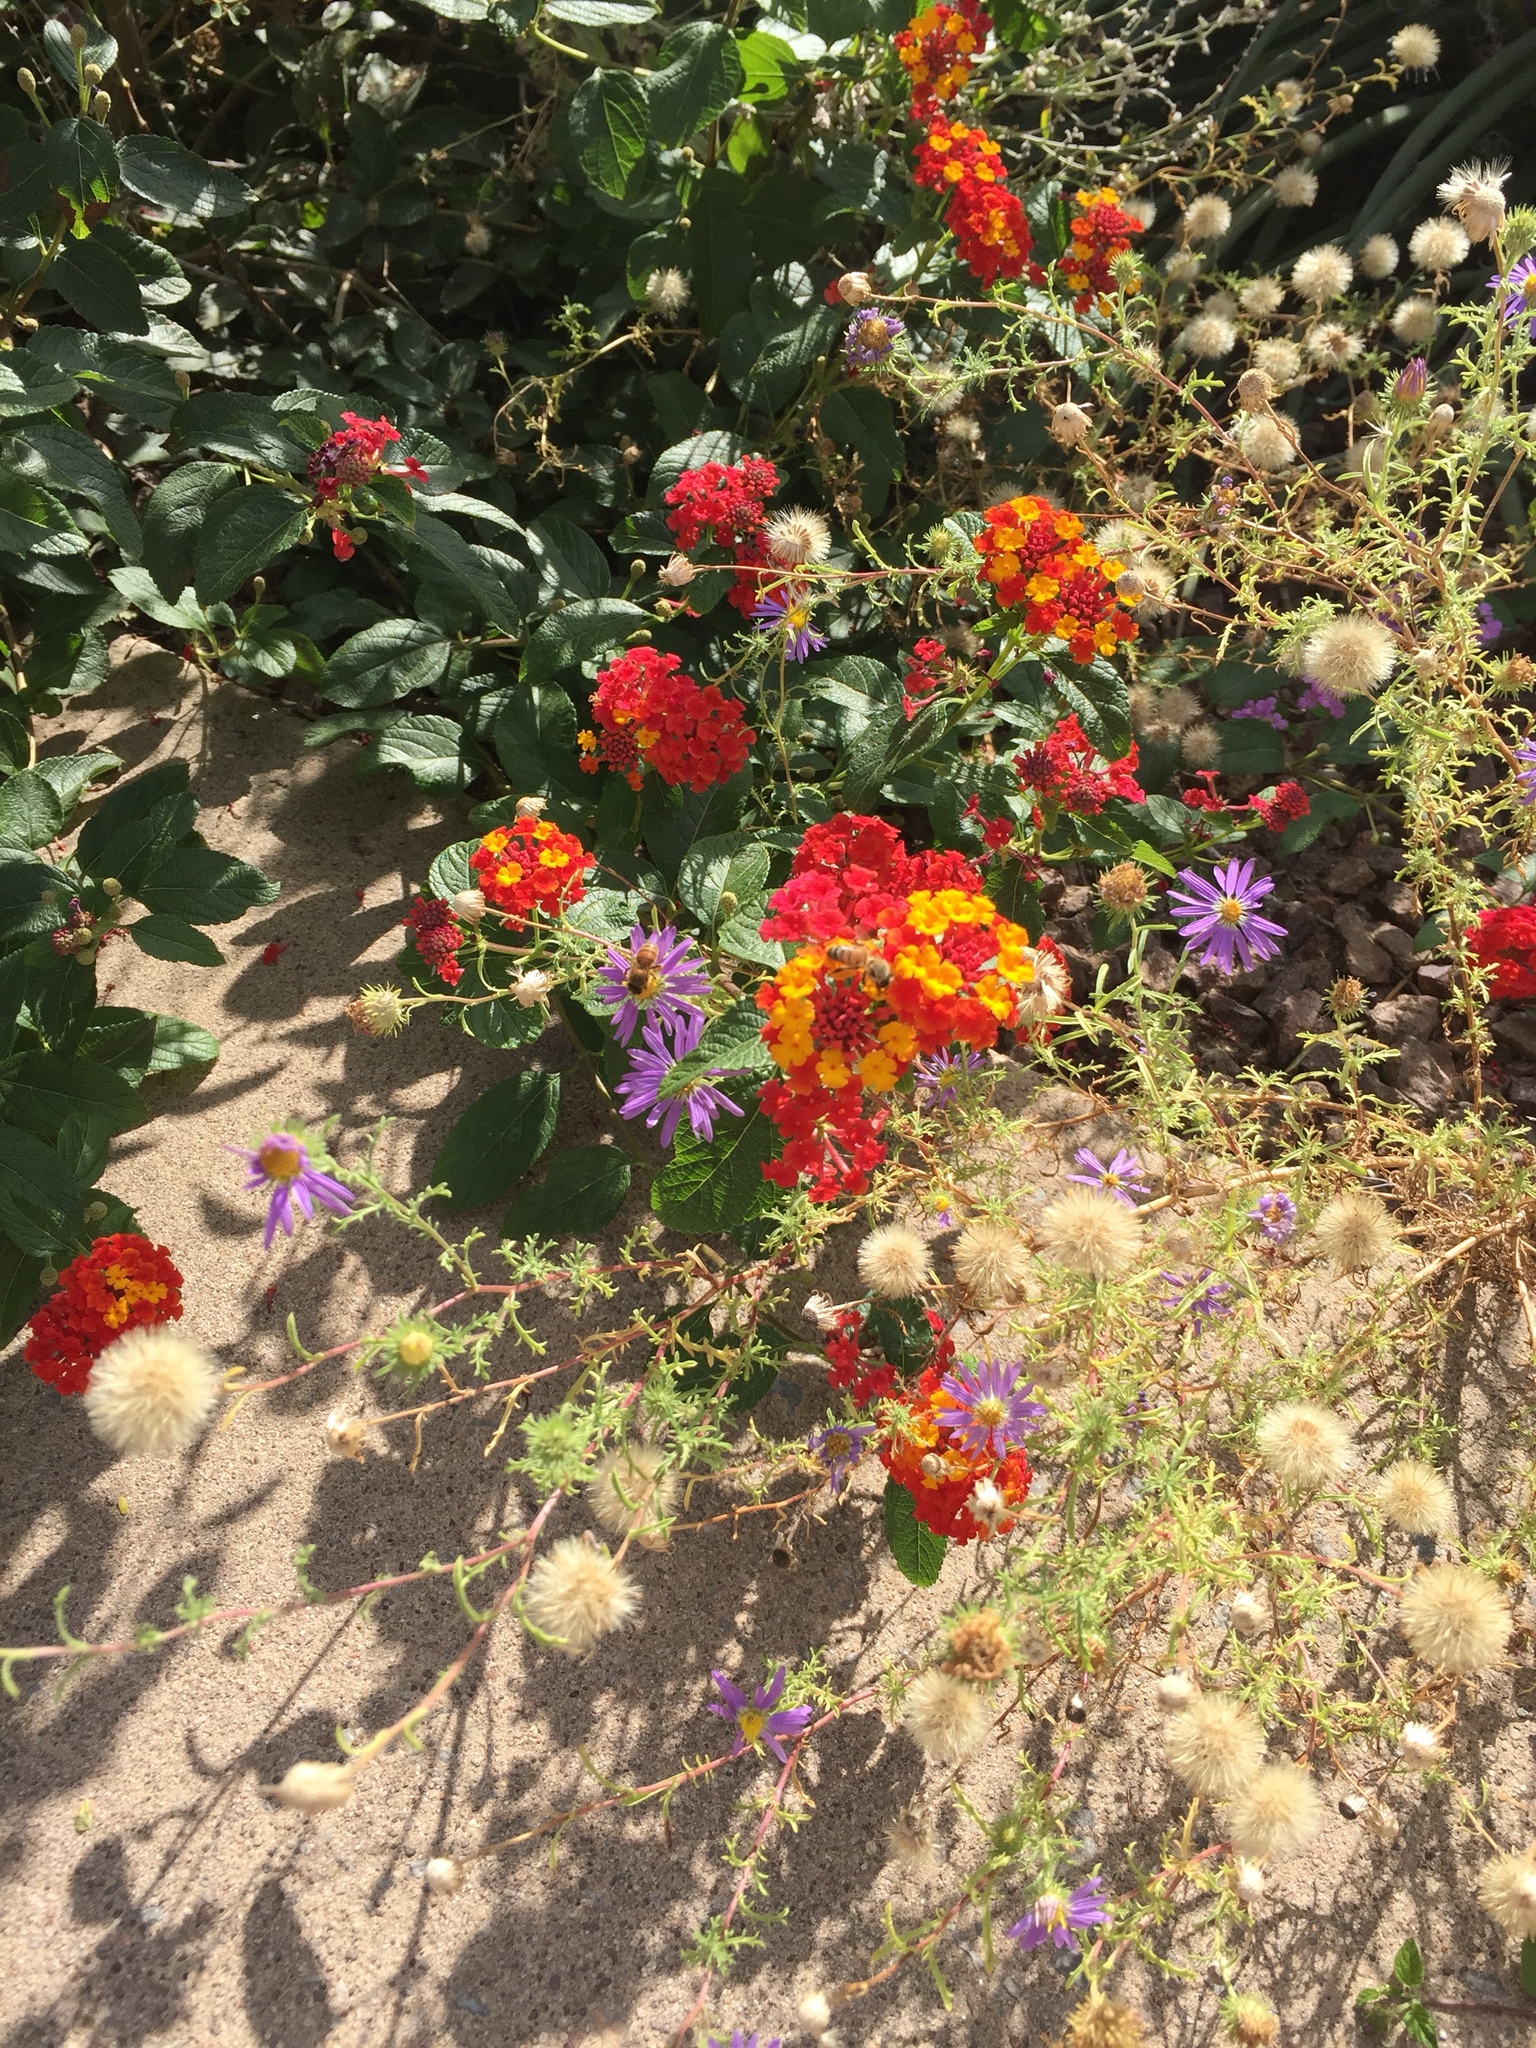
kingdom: Animalia
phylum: Arthropoda
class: Insecta
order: Hymenoptera
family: Apidae
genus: Apis
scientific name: Apis mellifera
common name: Honey bee
